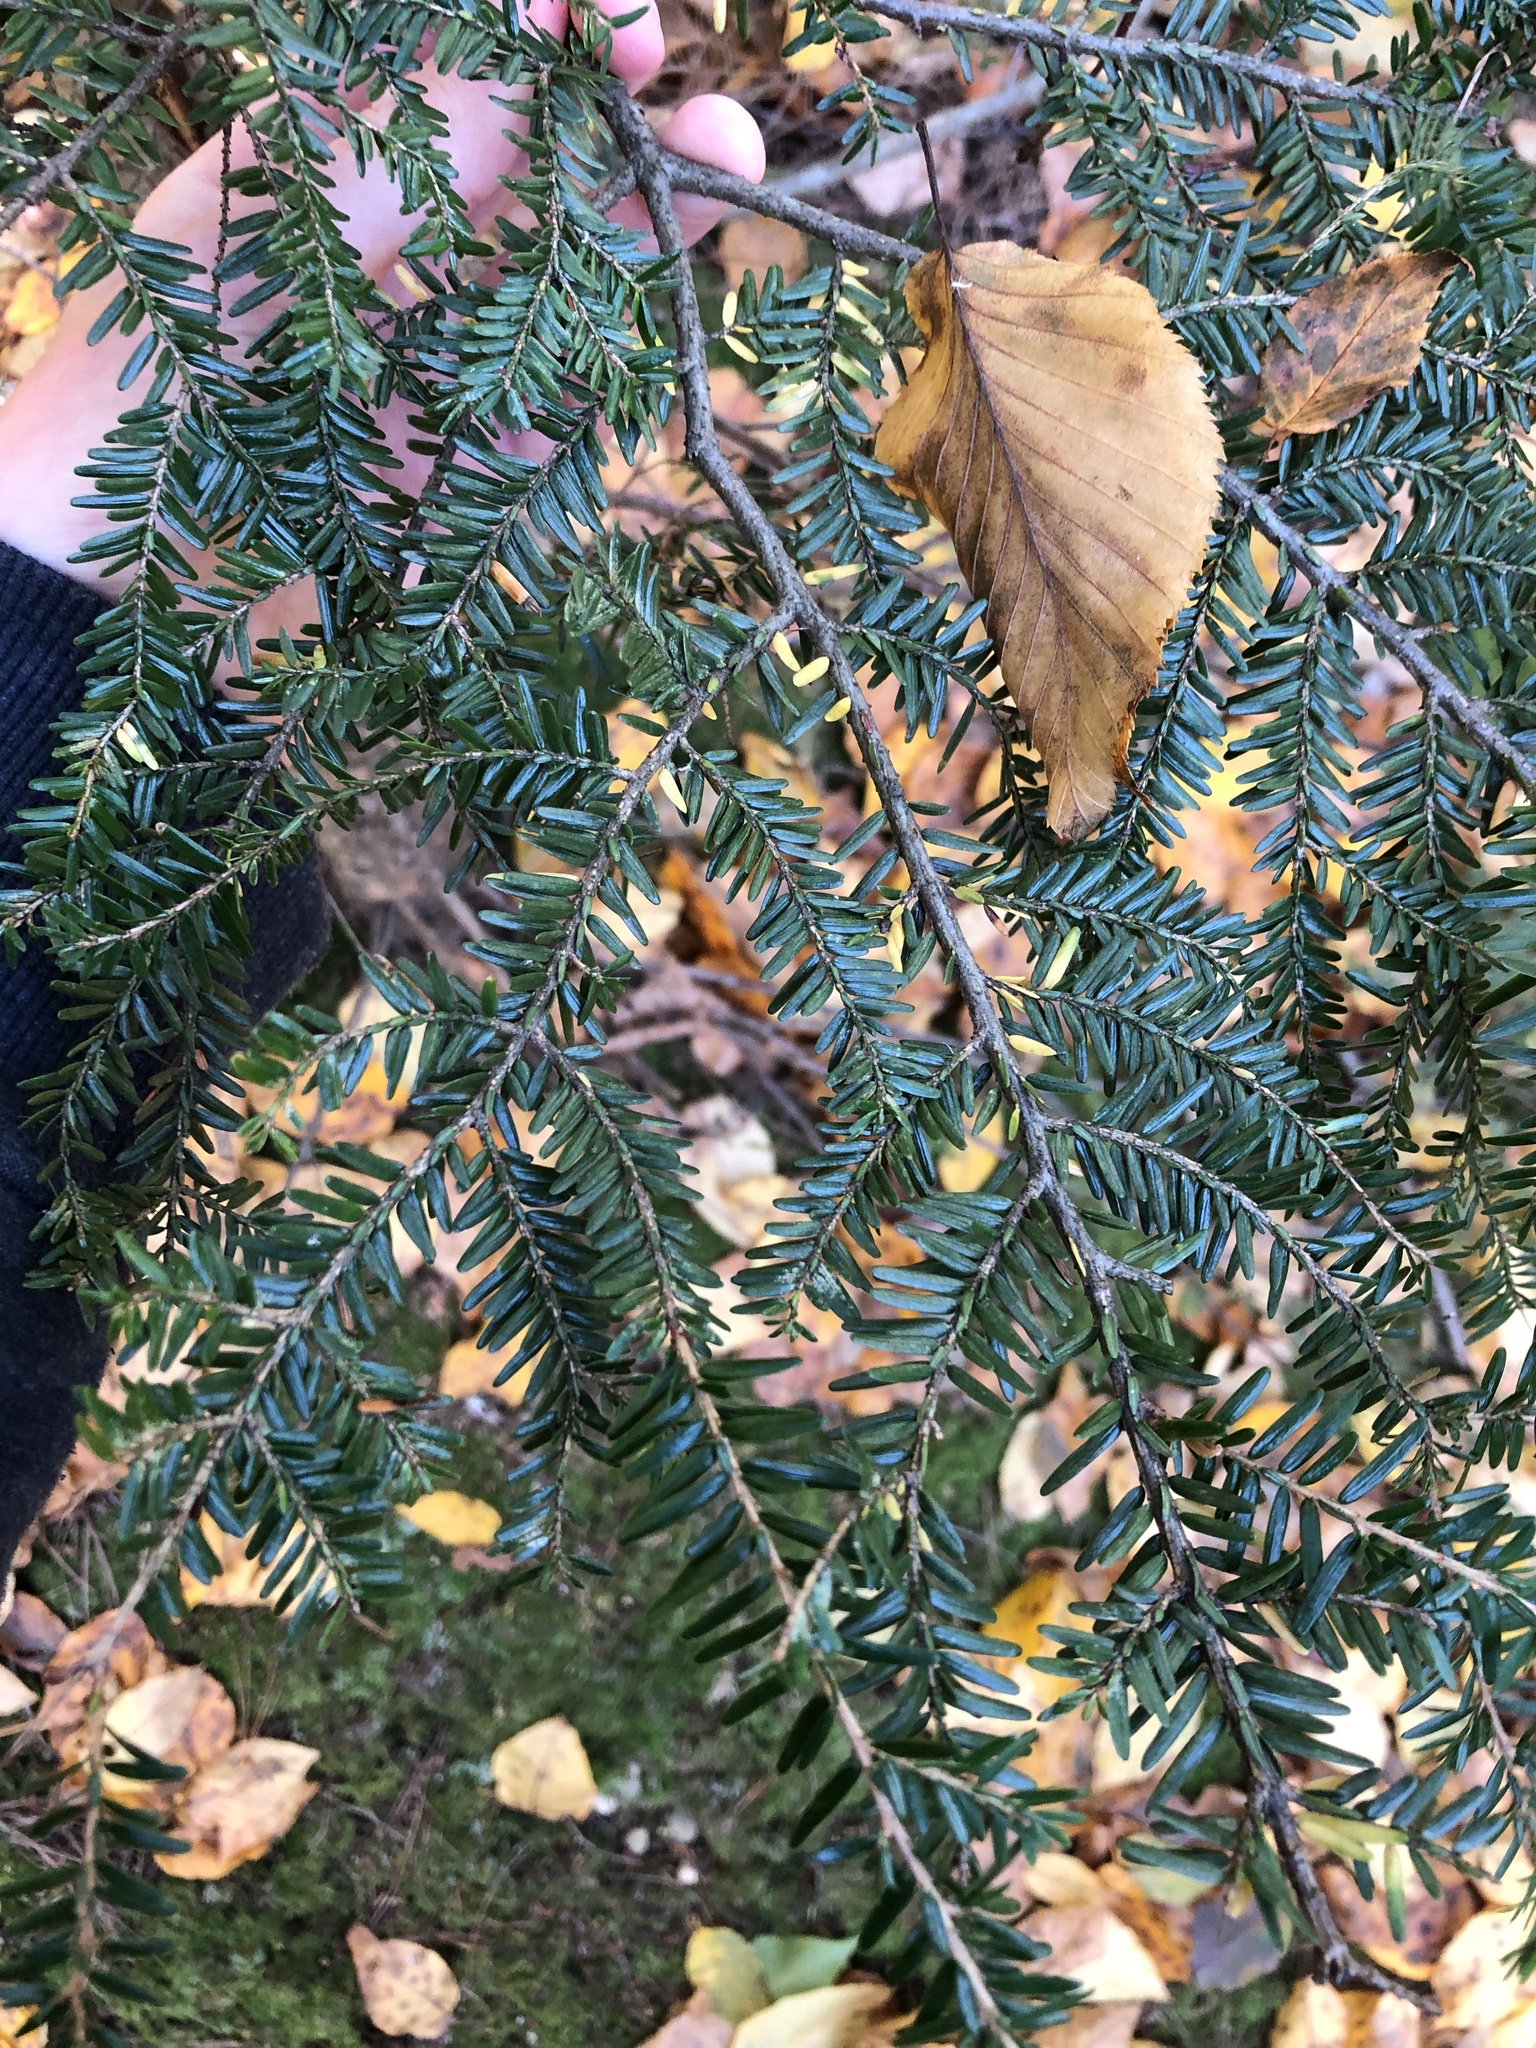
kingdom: Plantae
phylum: Tracheophyta
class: Pinopsida
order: Pinales
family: Pinaceae
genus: Tsuga
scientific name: Tsuga canadensis
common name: Eastern hemlock
